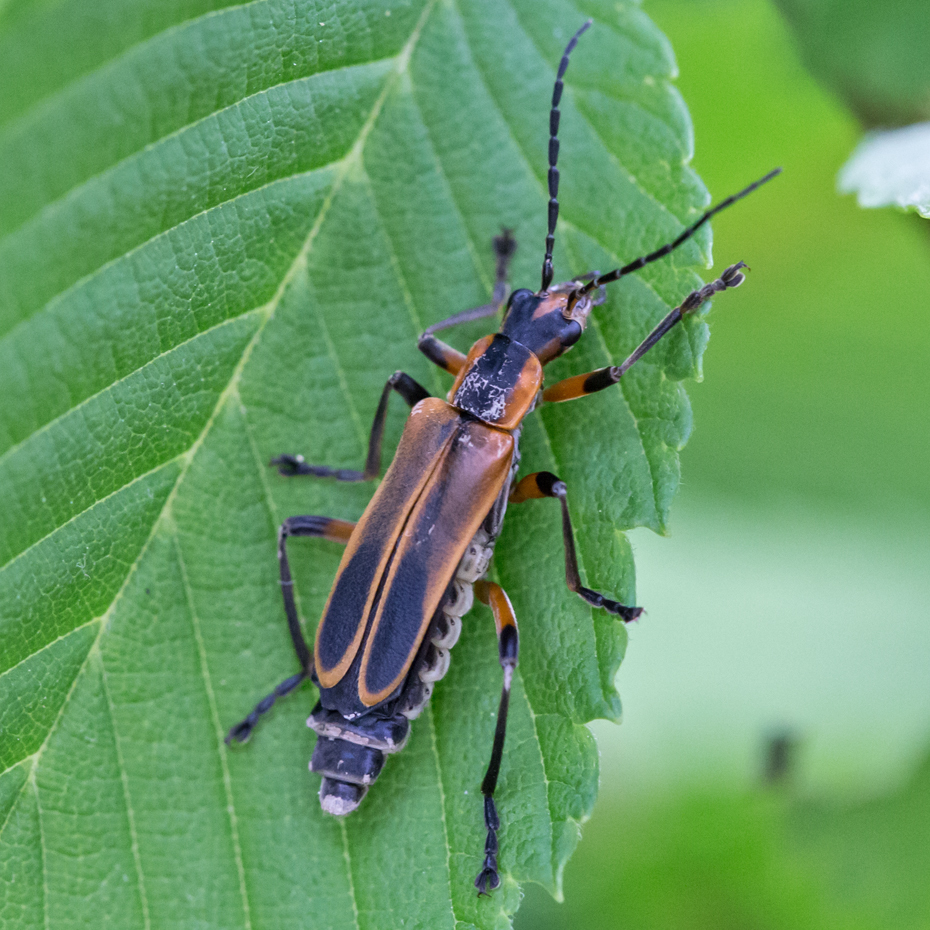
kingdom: Animalia
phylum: Arthropoda
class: Insecta
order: Coleoptera
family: Cantharidae
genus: Chauliognathus
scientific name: Chauliognathus marginatus
